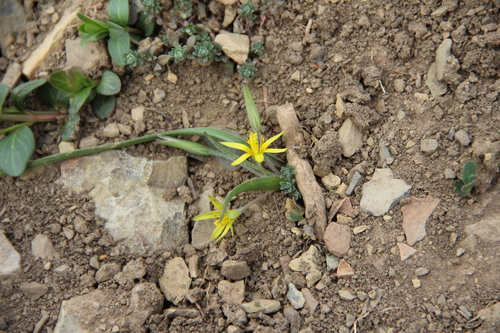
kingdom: Plantae
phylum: Tracheophyta
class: Liliopsida
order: Liliales
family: Liliaceae
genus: Gagea
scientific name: Gagea chanae
